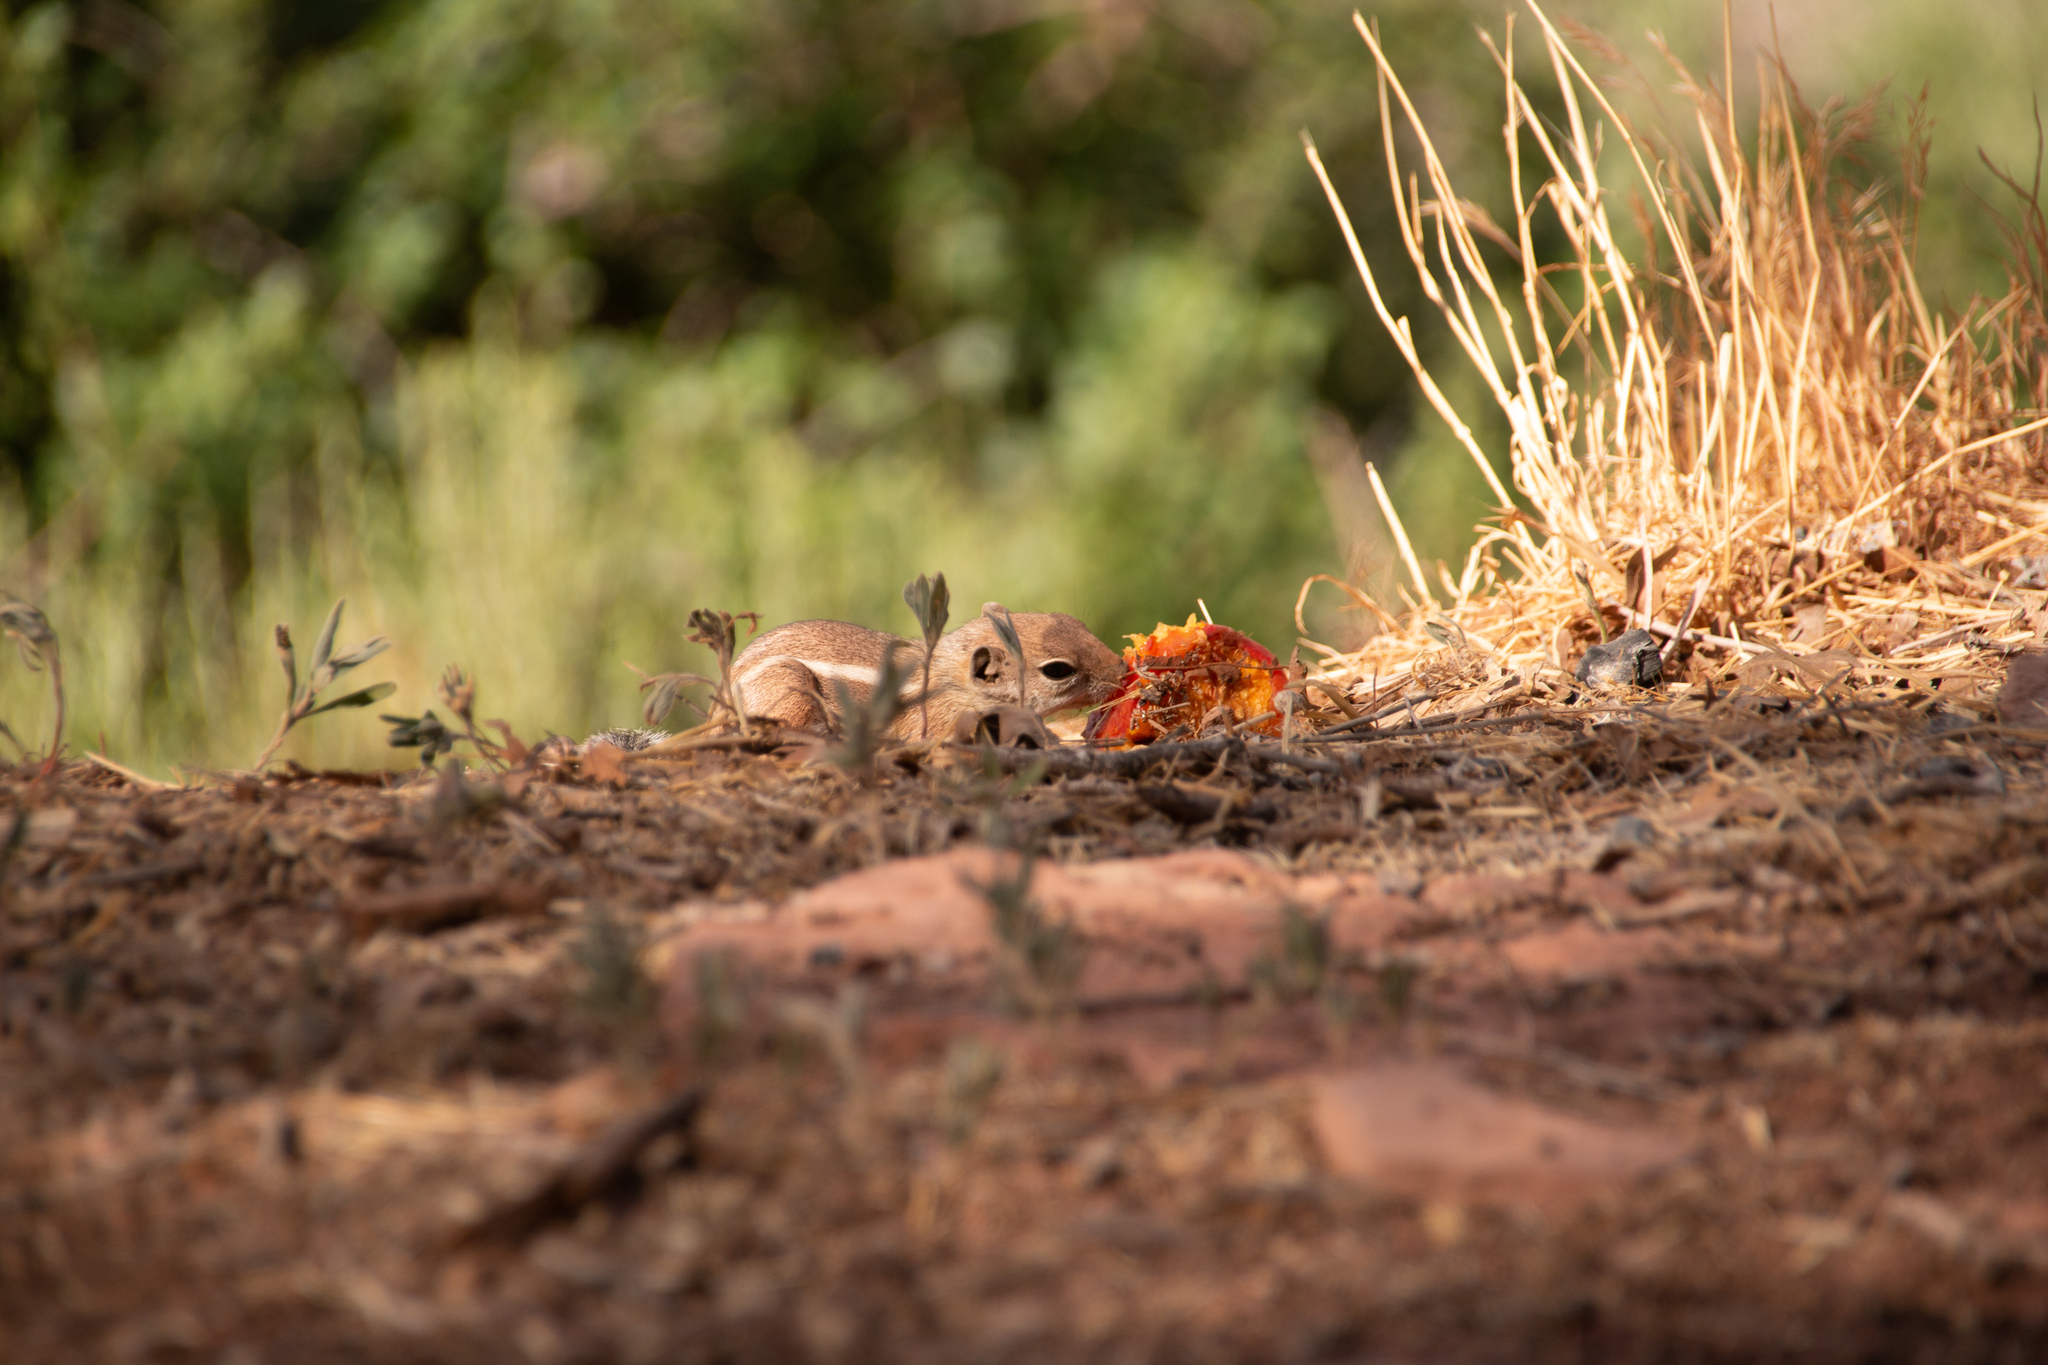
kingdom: Animalia
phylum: Chordata
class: Mammalia
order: Rodentia
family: Sciuridae
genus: Ammospermophilus
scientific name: Ammospermophilus leucurus
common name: White-tailed antelope squirrel
